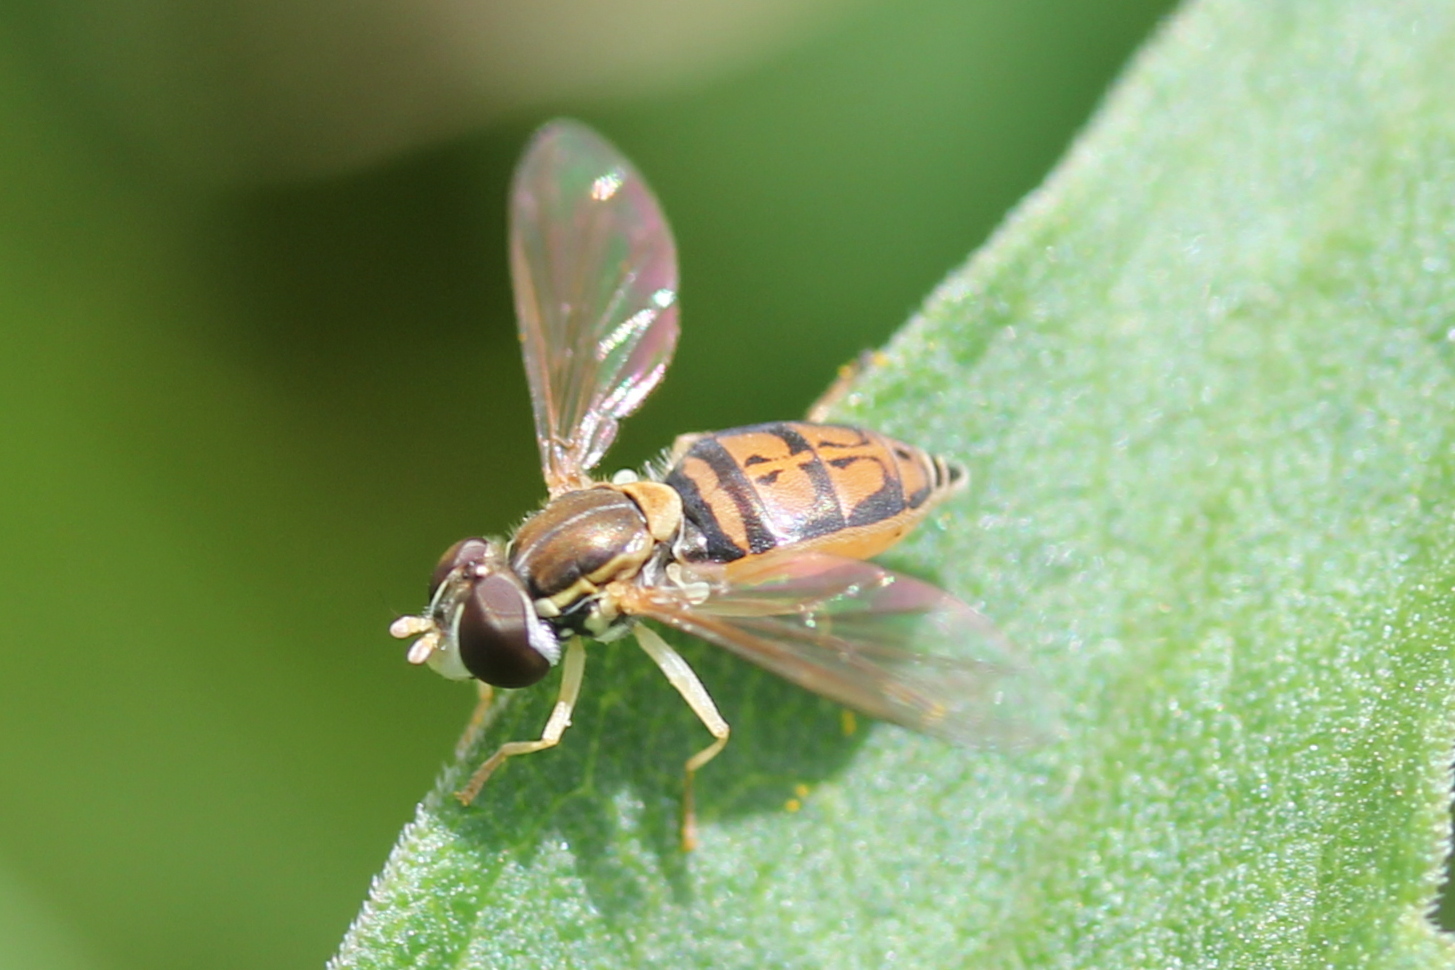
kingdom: Animalia
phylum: Arthropoda
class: Insecta
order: Diptera
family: Syrphidae
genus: Toxomerus
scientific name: Toxomerus marginatus
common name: Syrphid fly
